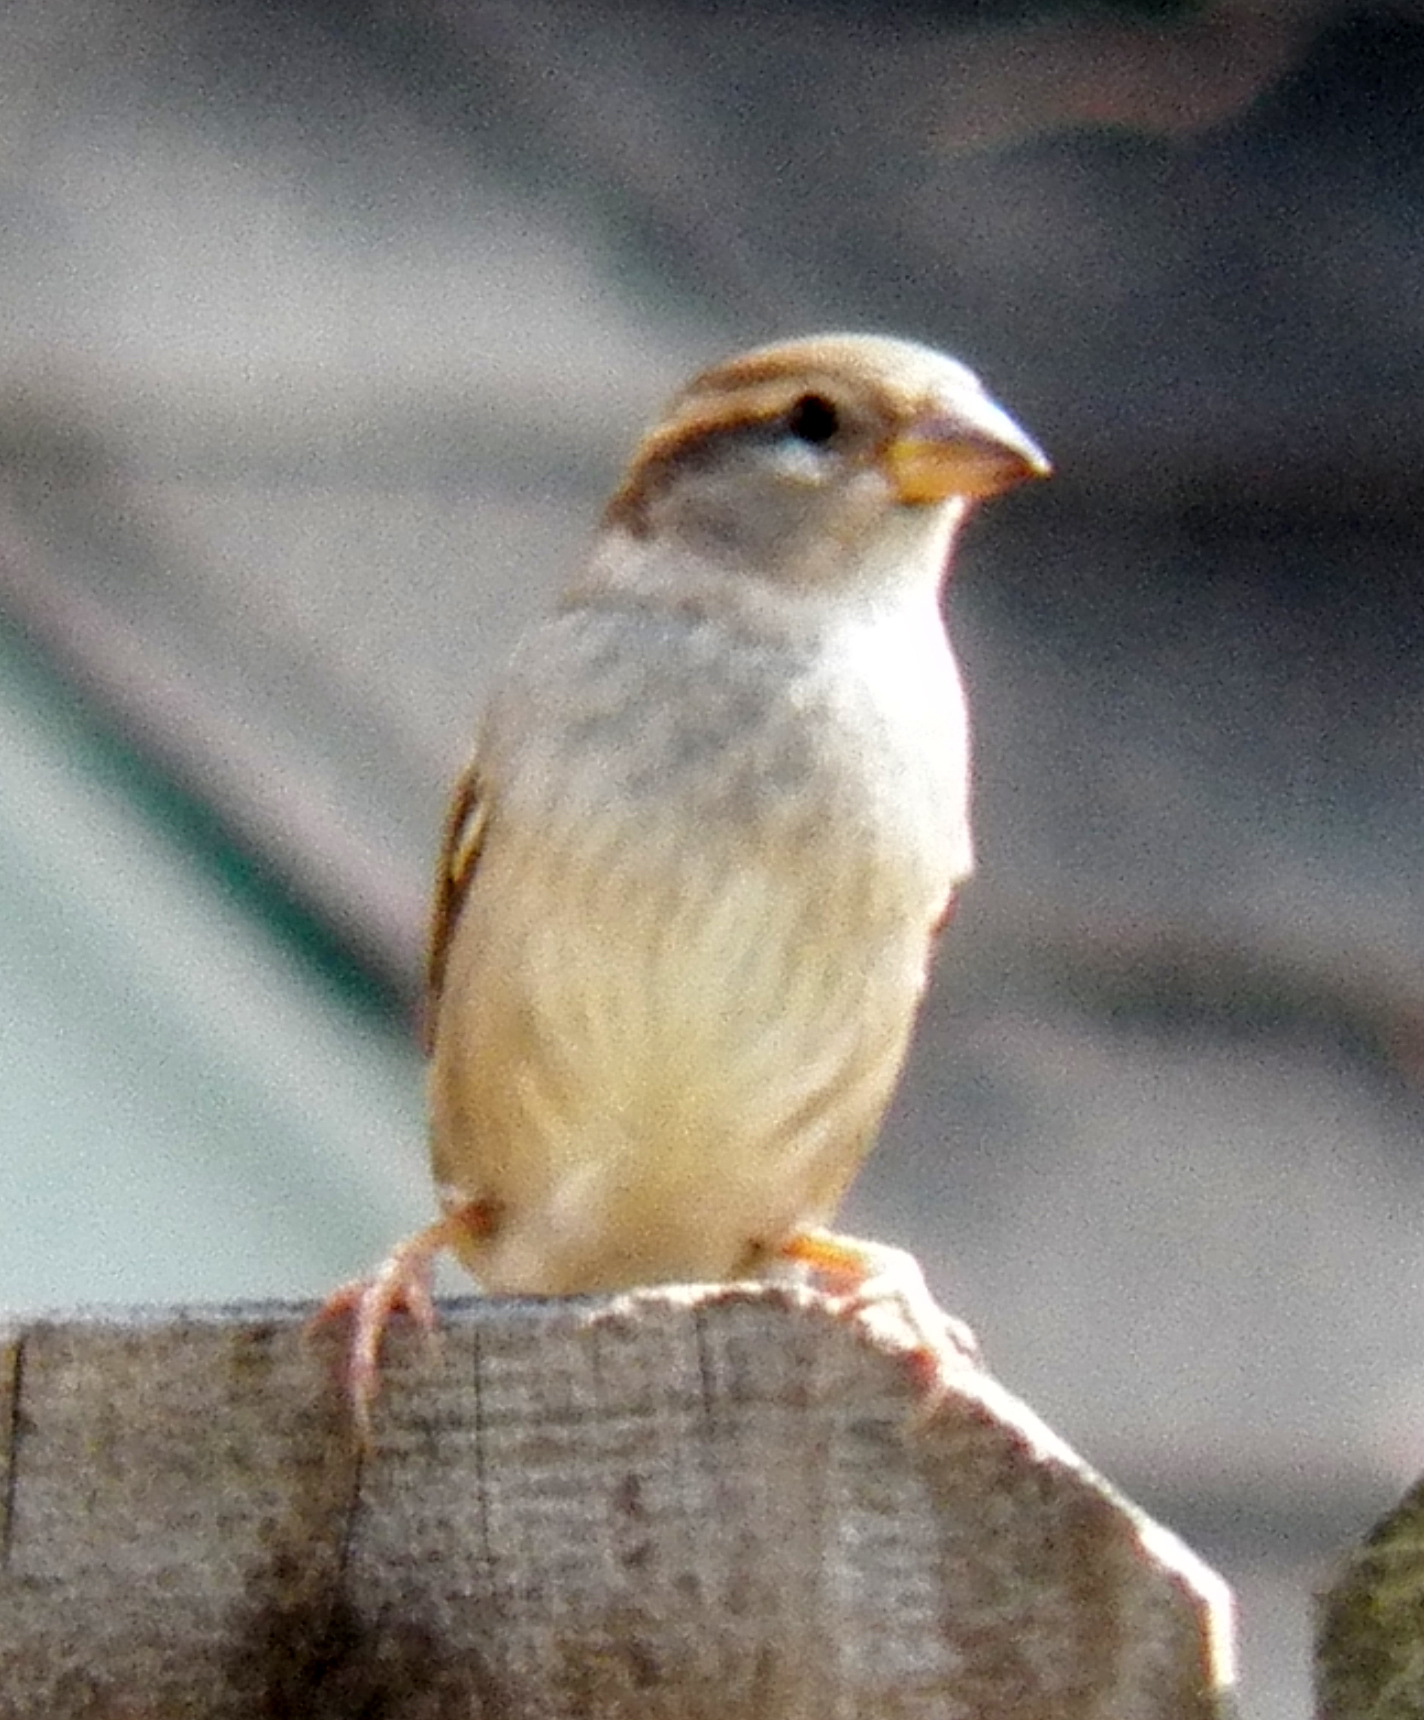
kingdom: Animalia
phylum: Chordata
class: Aves
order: Passeriformes
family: Passerellidae
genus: Spizella
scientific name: Spizella passerina
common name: Chipping sparrow
